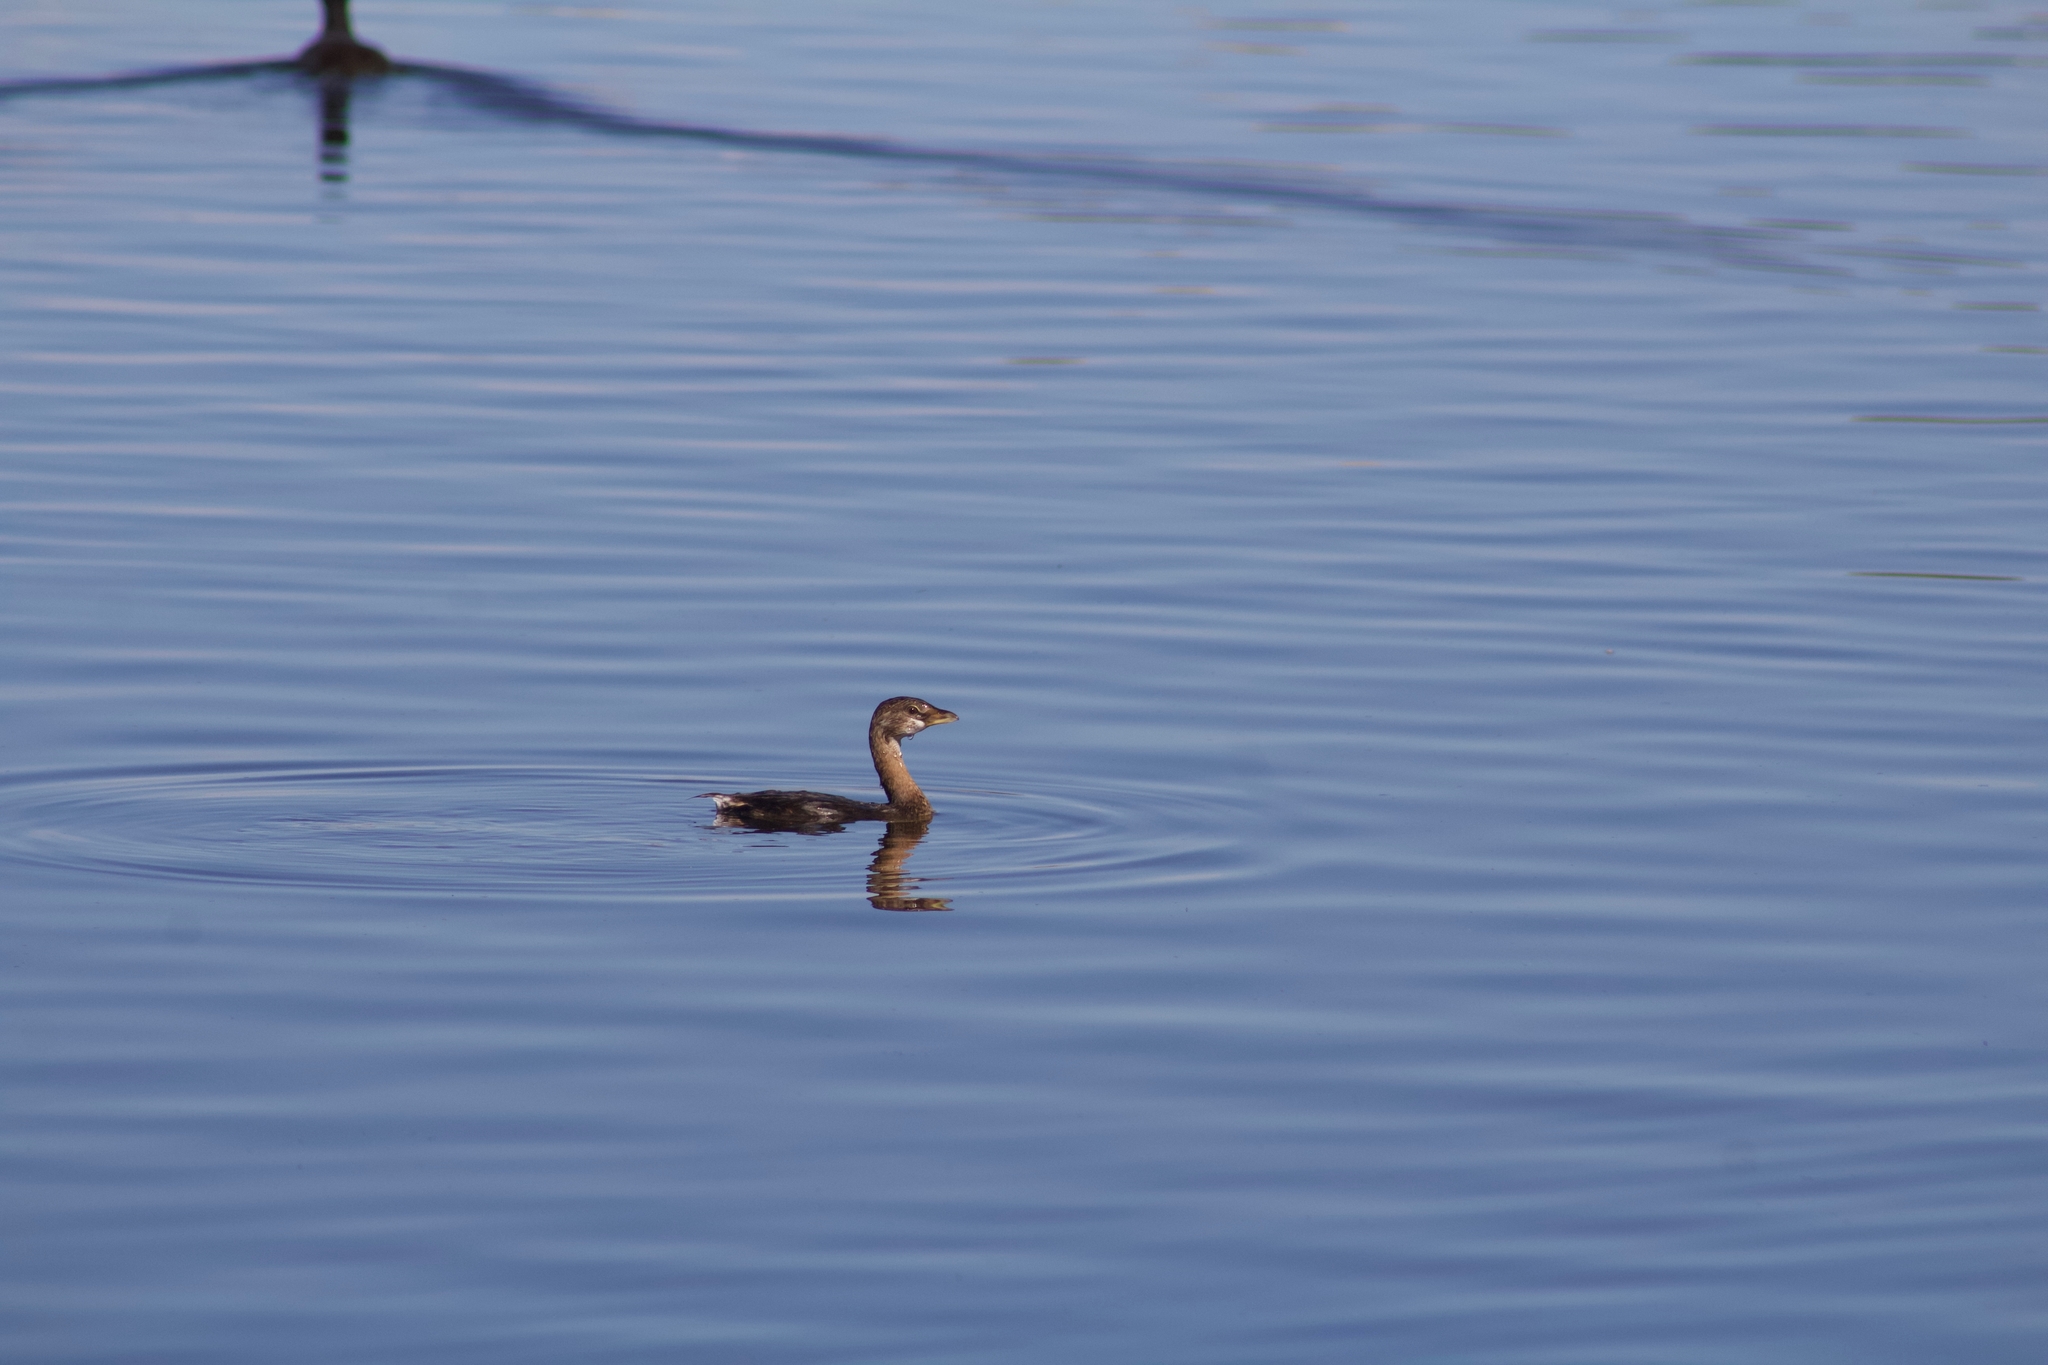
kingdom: Animalia
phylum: Chordata
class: Aves
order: Podicipediformes
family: Podicipedidae
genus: Podilymbus
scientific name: Podilymbus podiceps
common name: Pied-billed grebe
